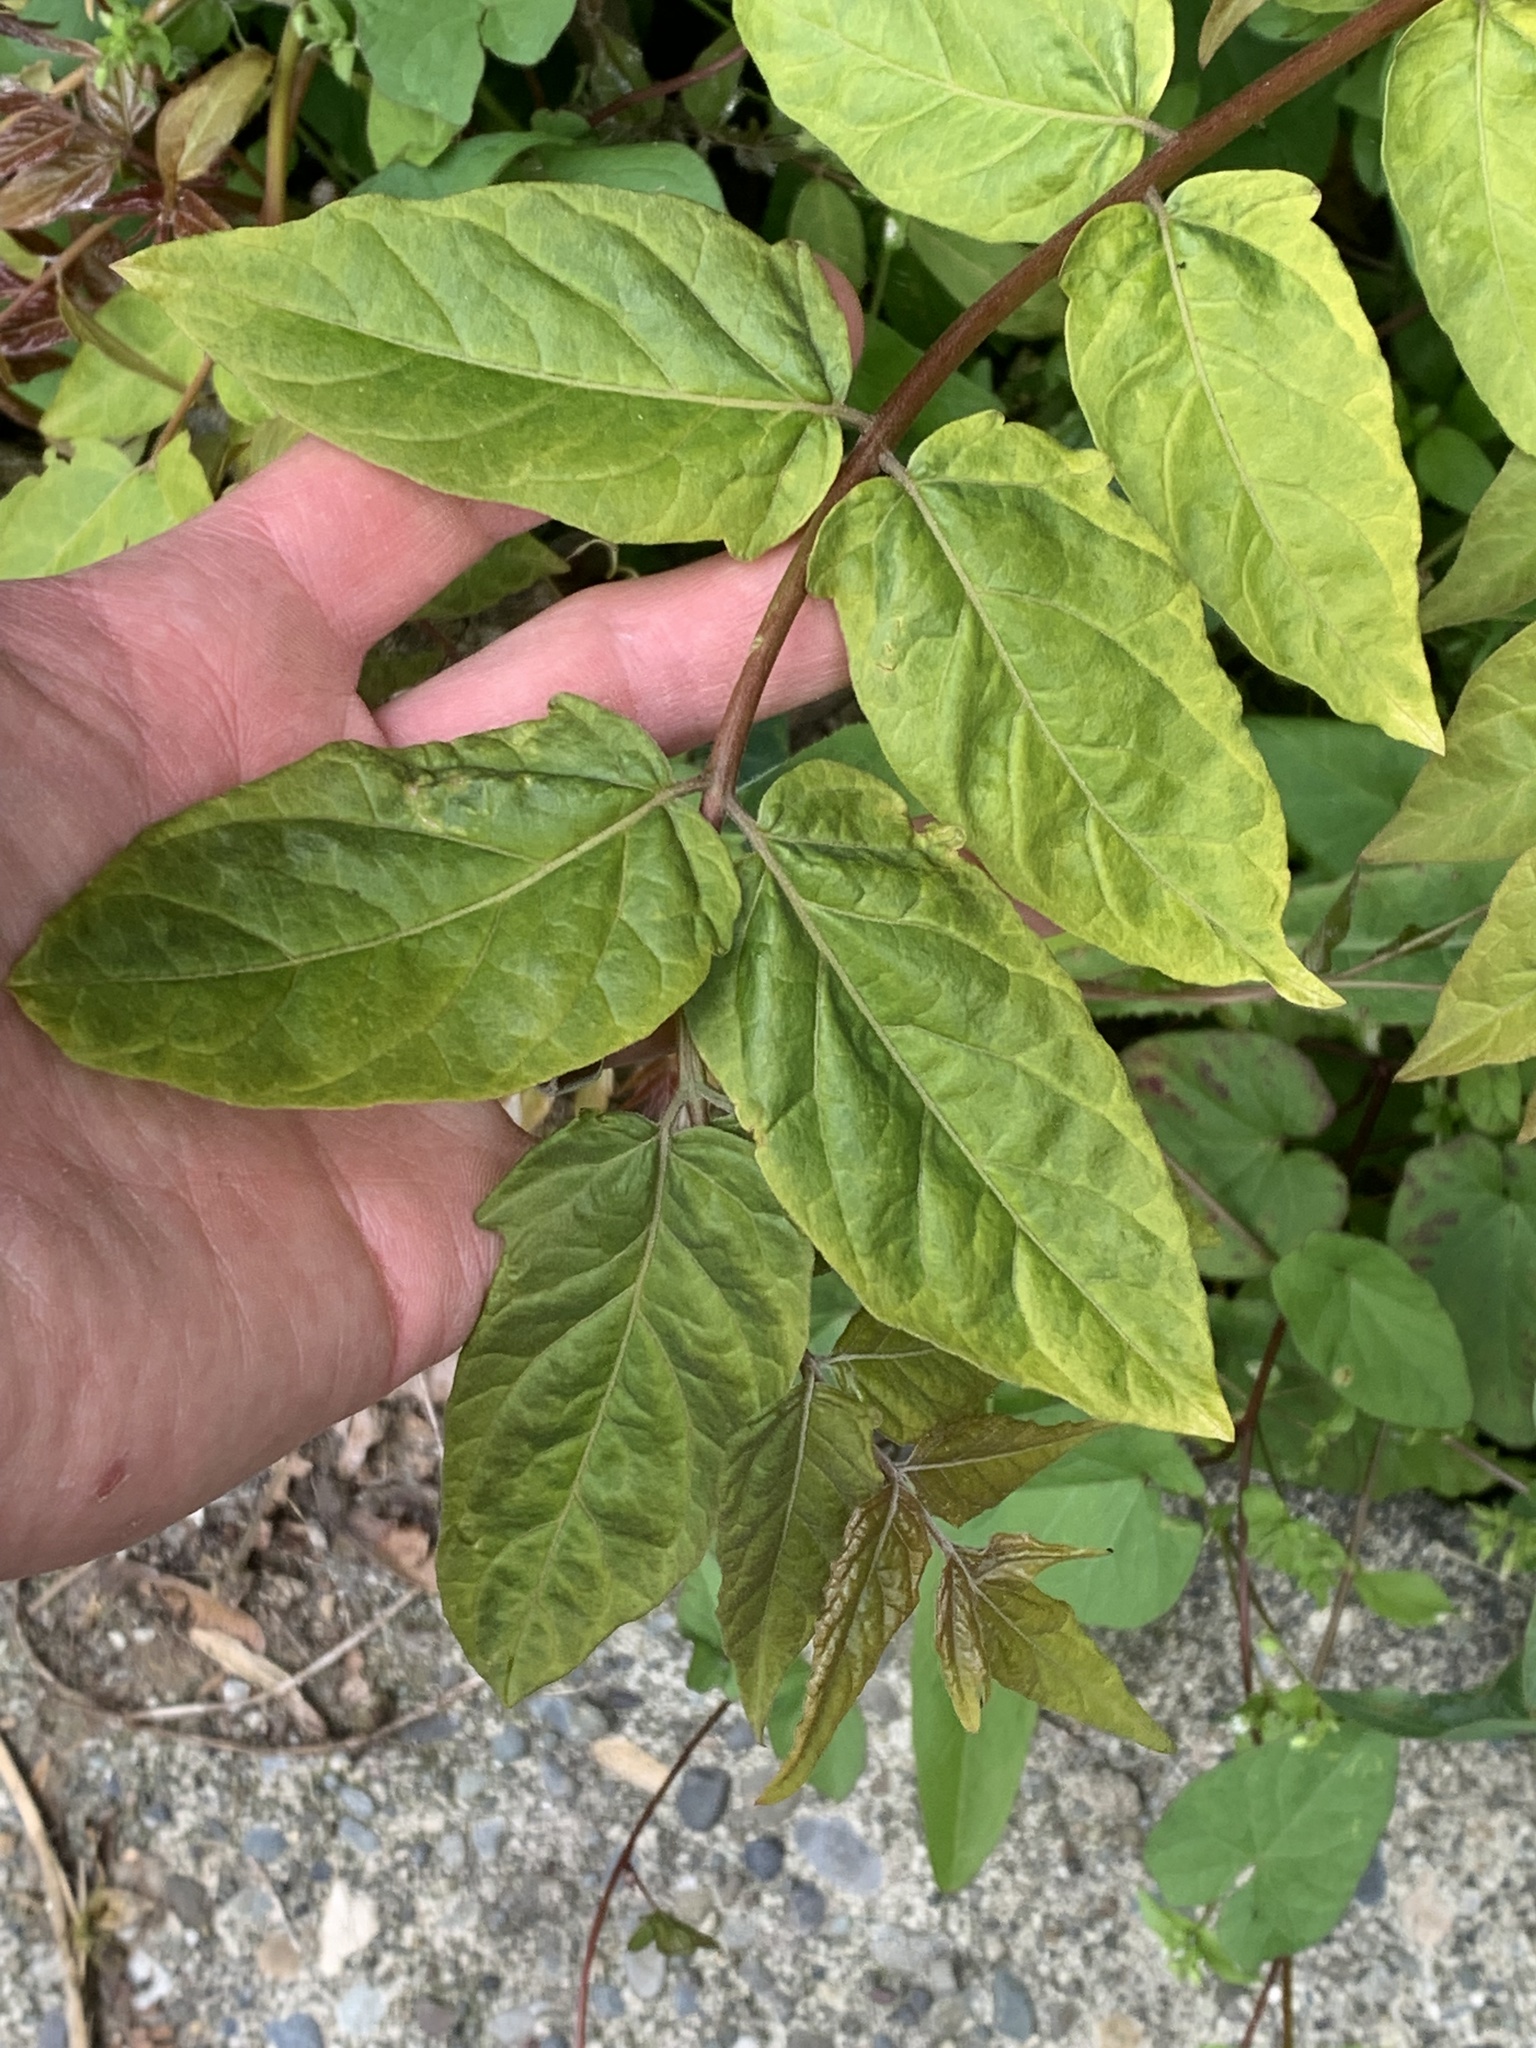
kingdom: Plantae
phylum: Tracheophyta
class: Magnoliopsida
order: Sapindales
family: Simaroubaceae
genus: Ailanthus
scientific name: Ailanthus altissima
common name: Tree-of-heaven
